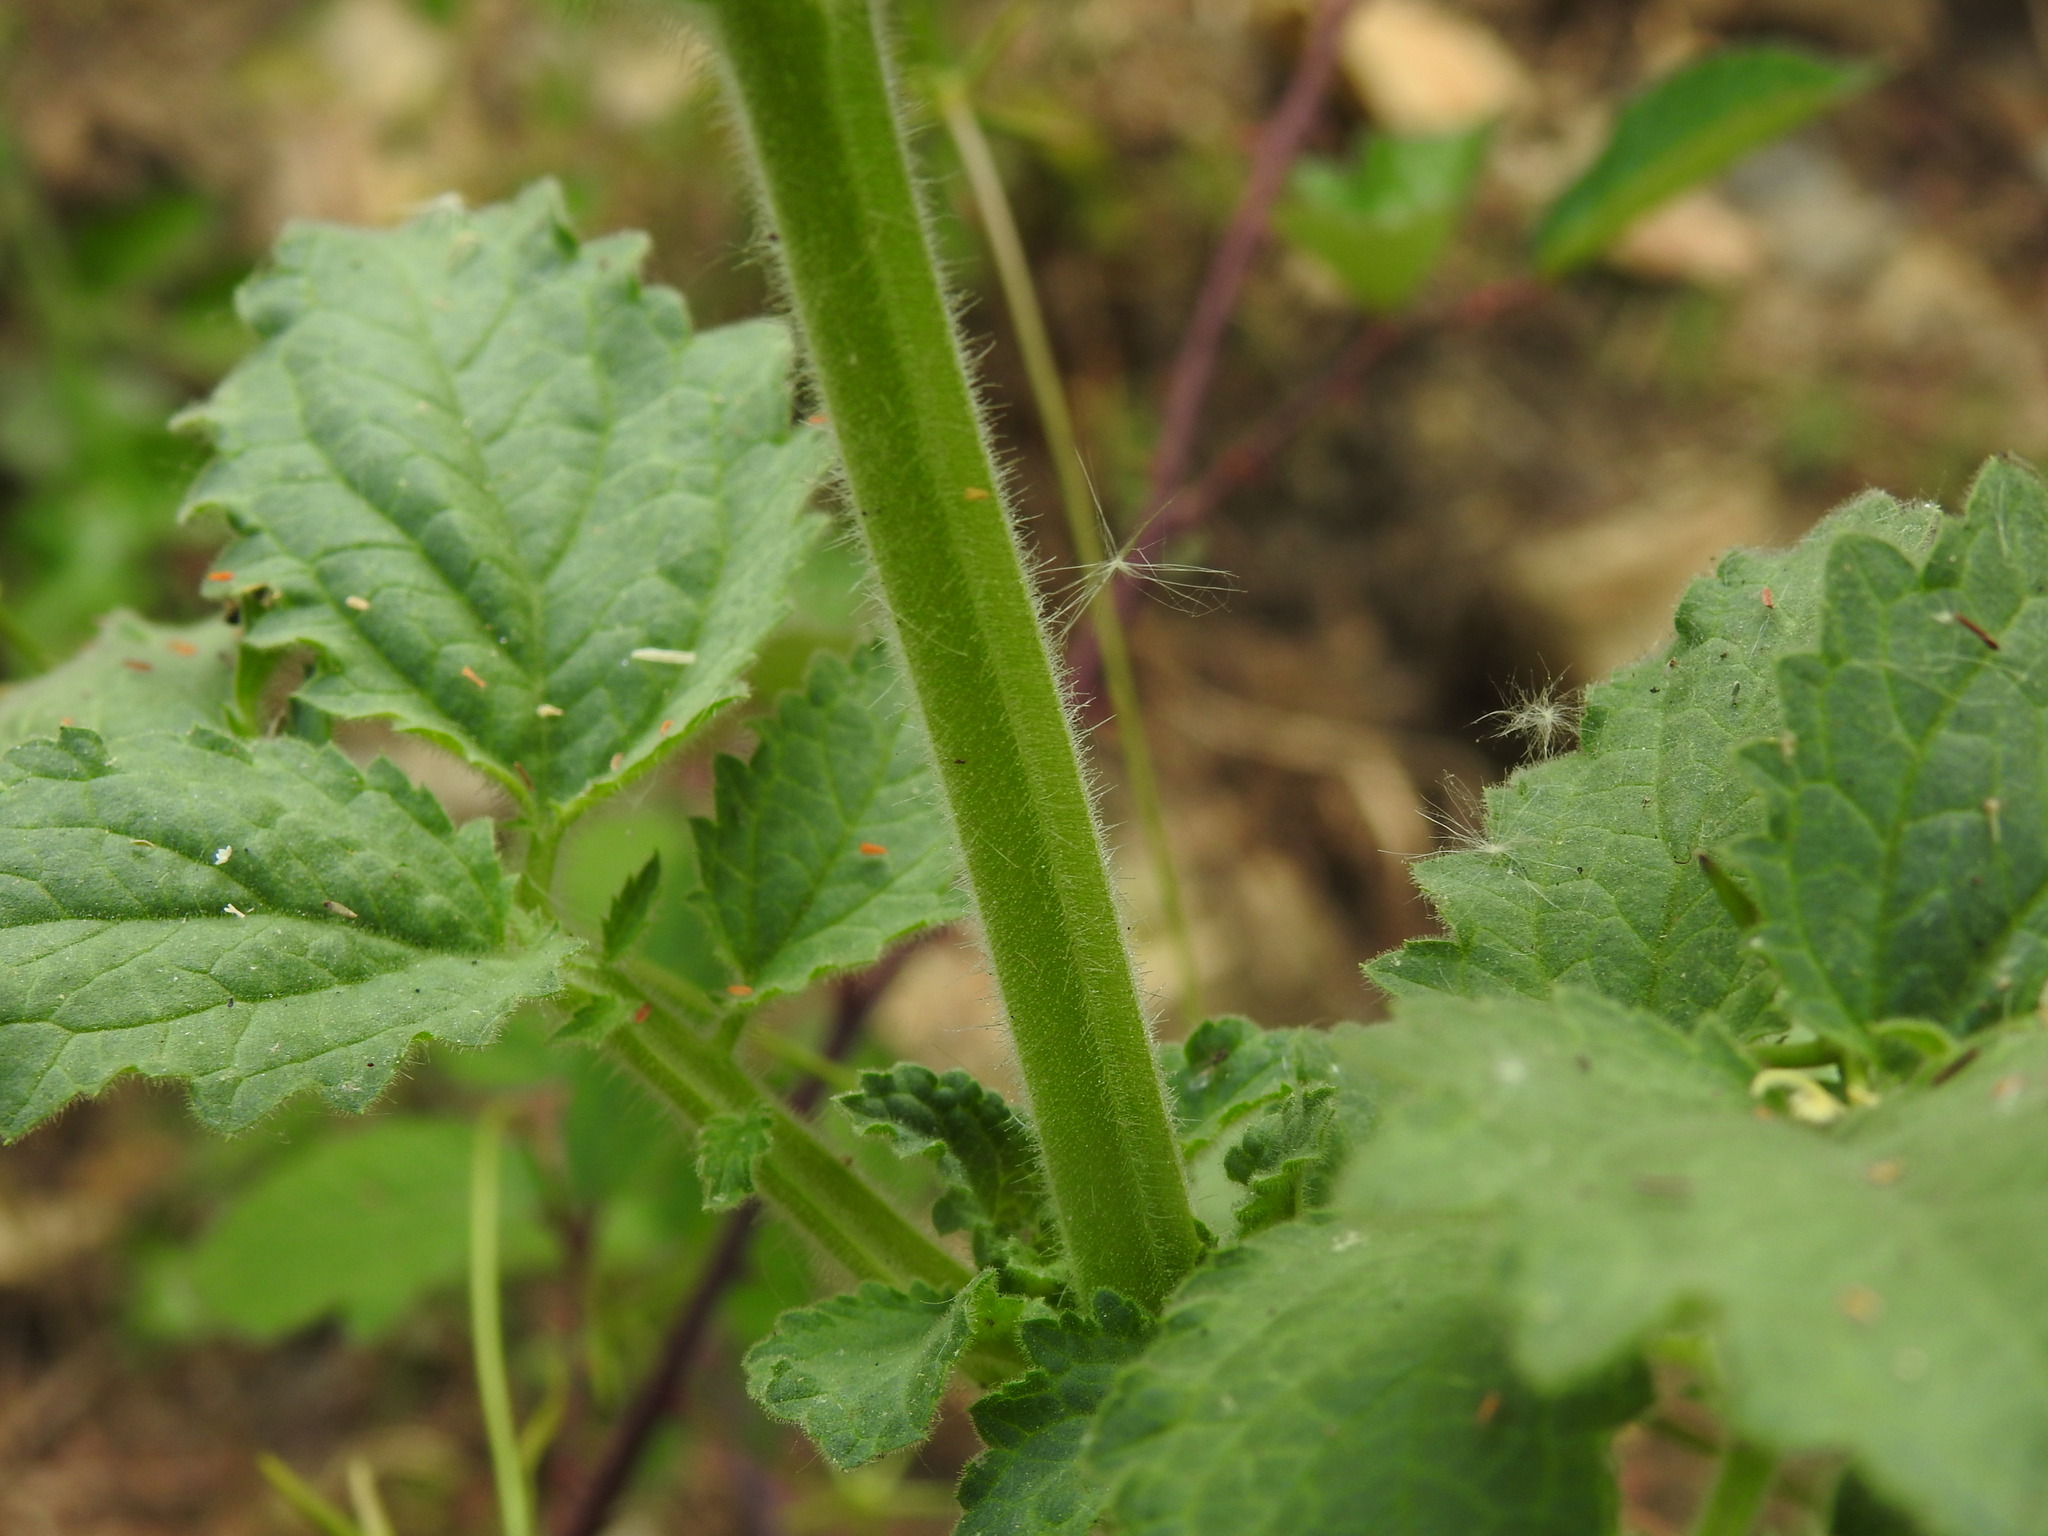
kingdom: Plantae
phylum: Tracheophyta
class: Magnoliopsida
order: Lamiales
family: Scrophulariaceae
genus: Scrophularia
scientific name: Scrophularia grandiflora
